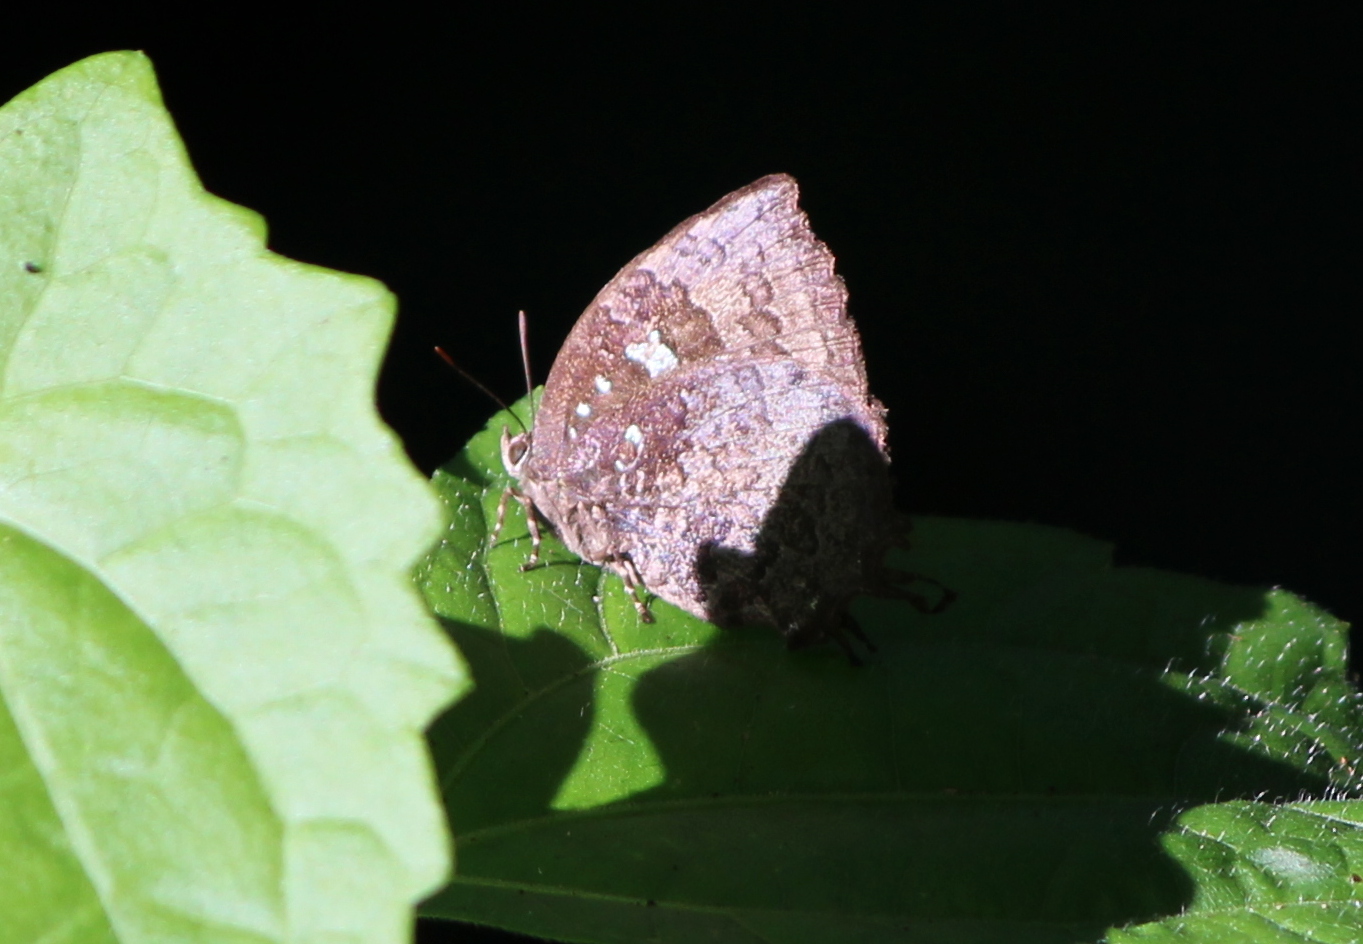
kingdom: Animalia
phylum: Arthropoda
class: Insecta
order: Lepidoptera
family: Lycaenidae
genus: Thaduka
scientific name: Thaduka multicaudata
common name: Many-tailed oakblue
